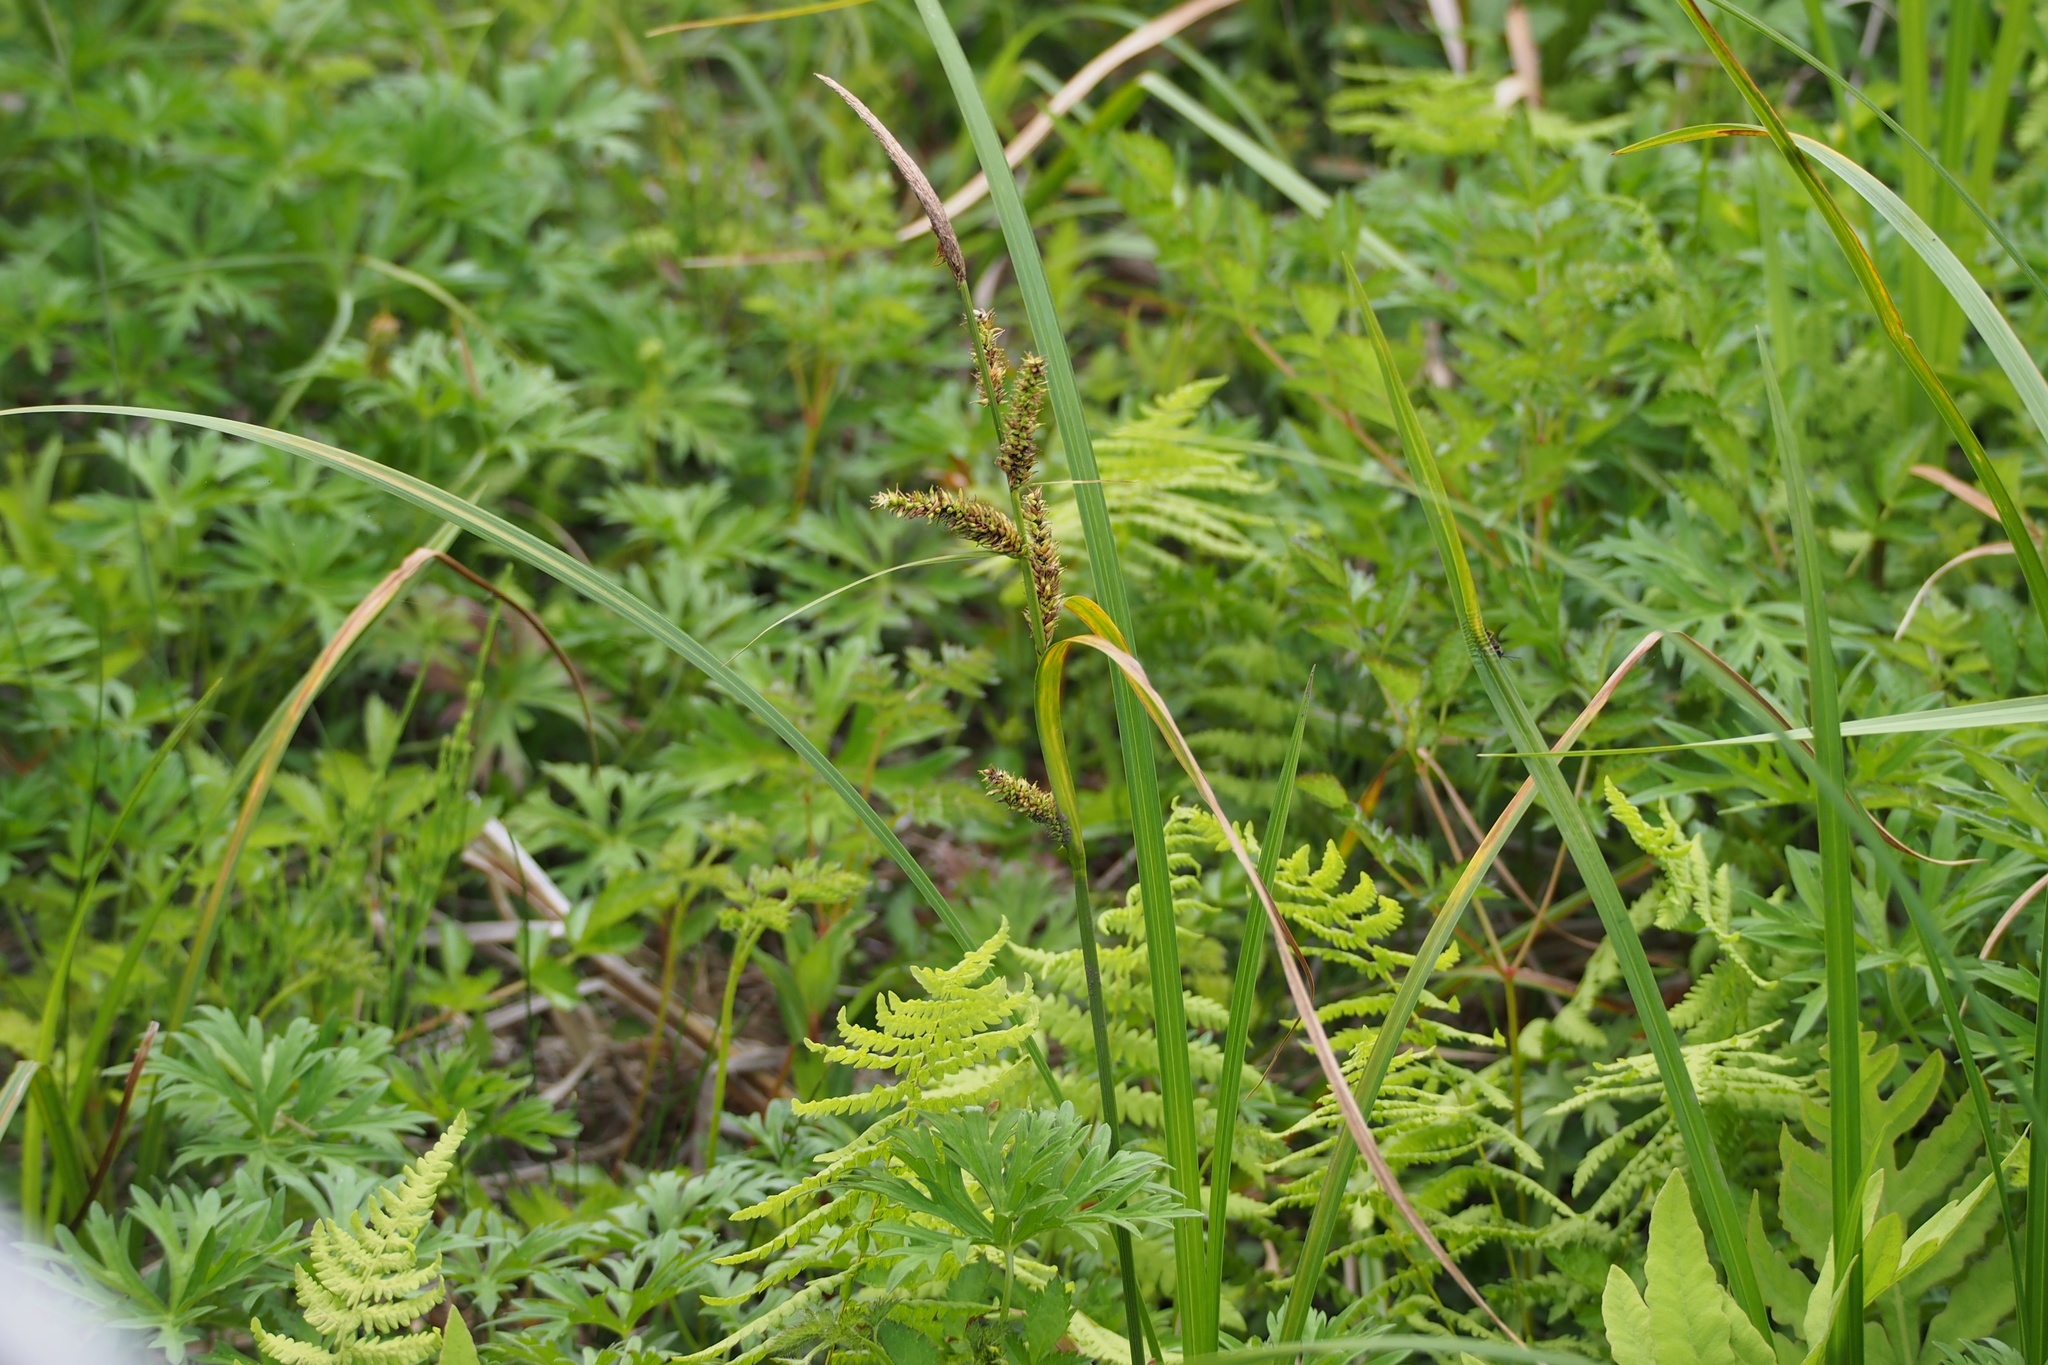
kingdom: Plantae
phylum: Tracheophyta
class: Liliopsida
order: Poales
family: Cyperaceae
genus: Carex
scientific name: Carex dispalata
